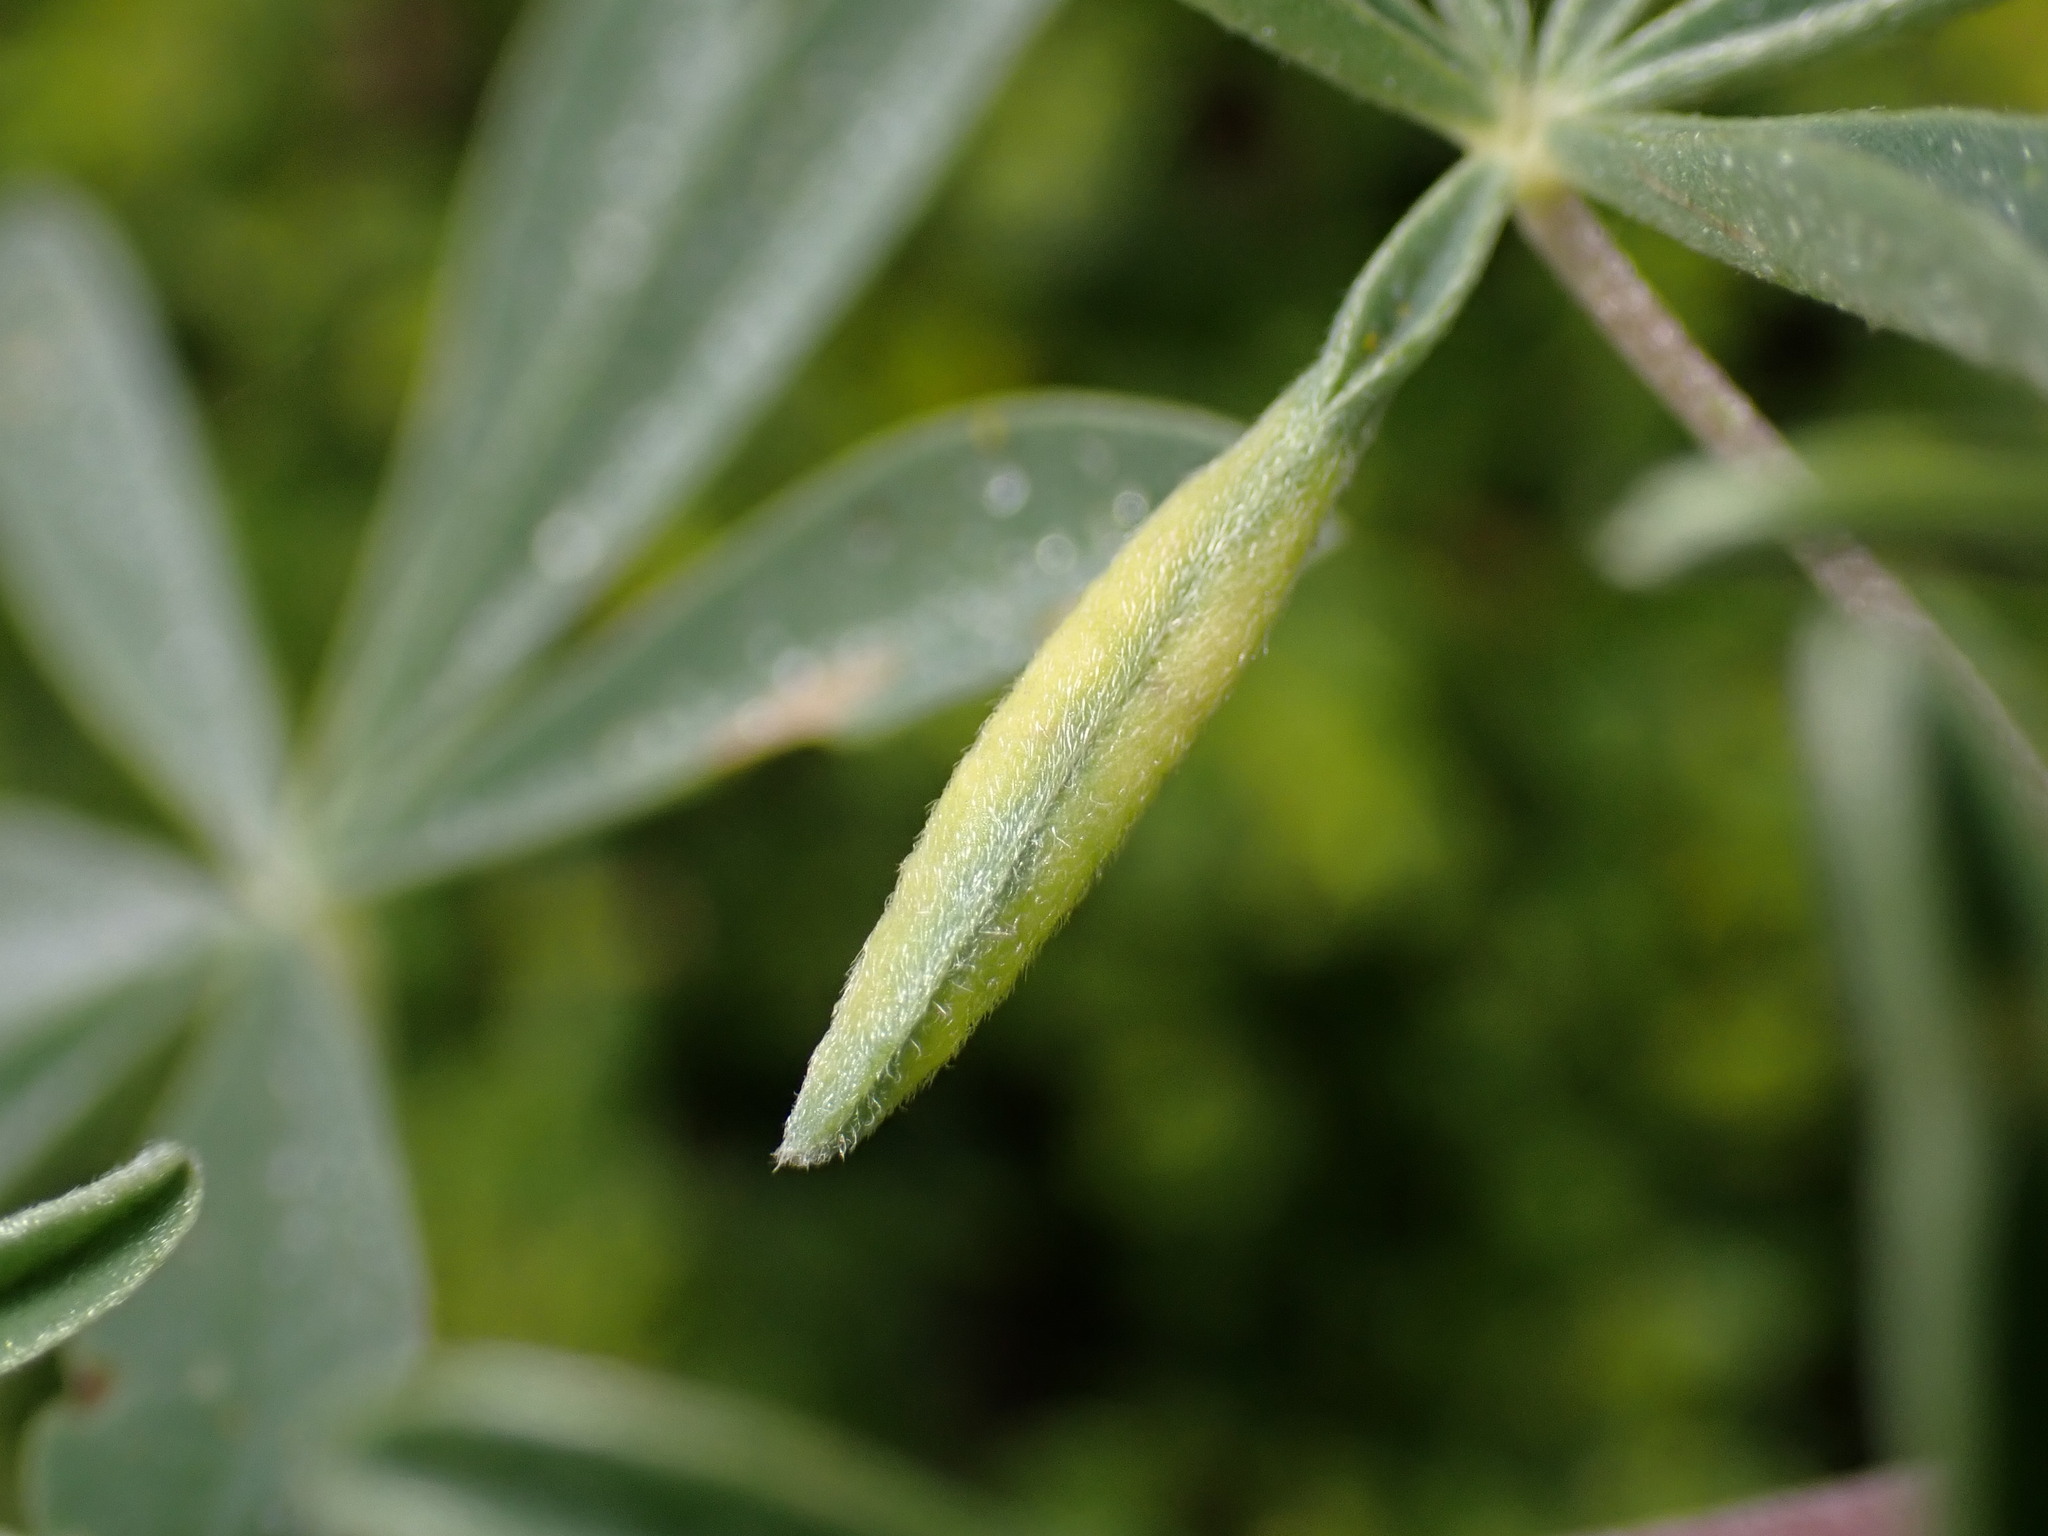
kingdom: Animalia
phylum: Arthropoda
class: Insecta
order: Diptera
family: Cecidomyiidae
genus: Dasineura
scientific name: Dasineura lupinorum
